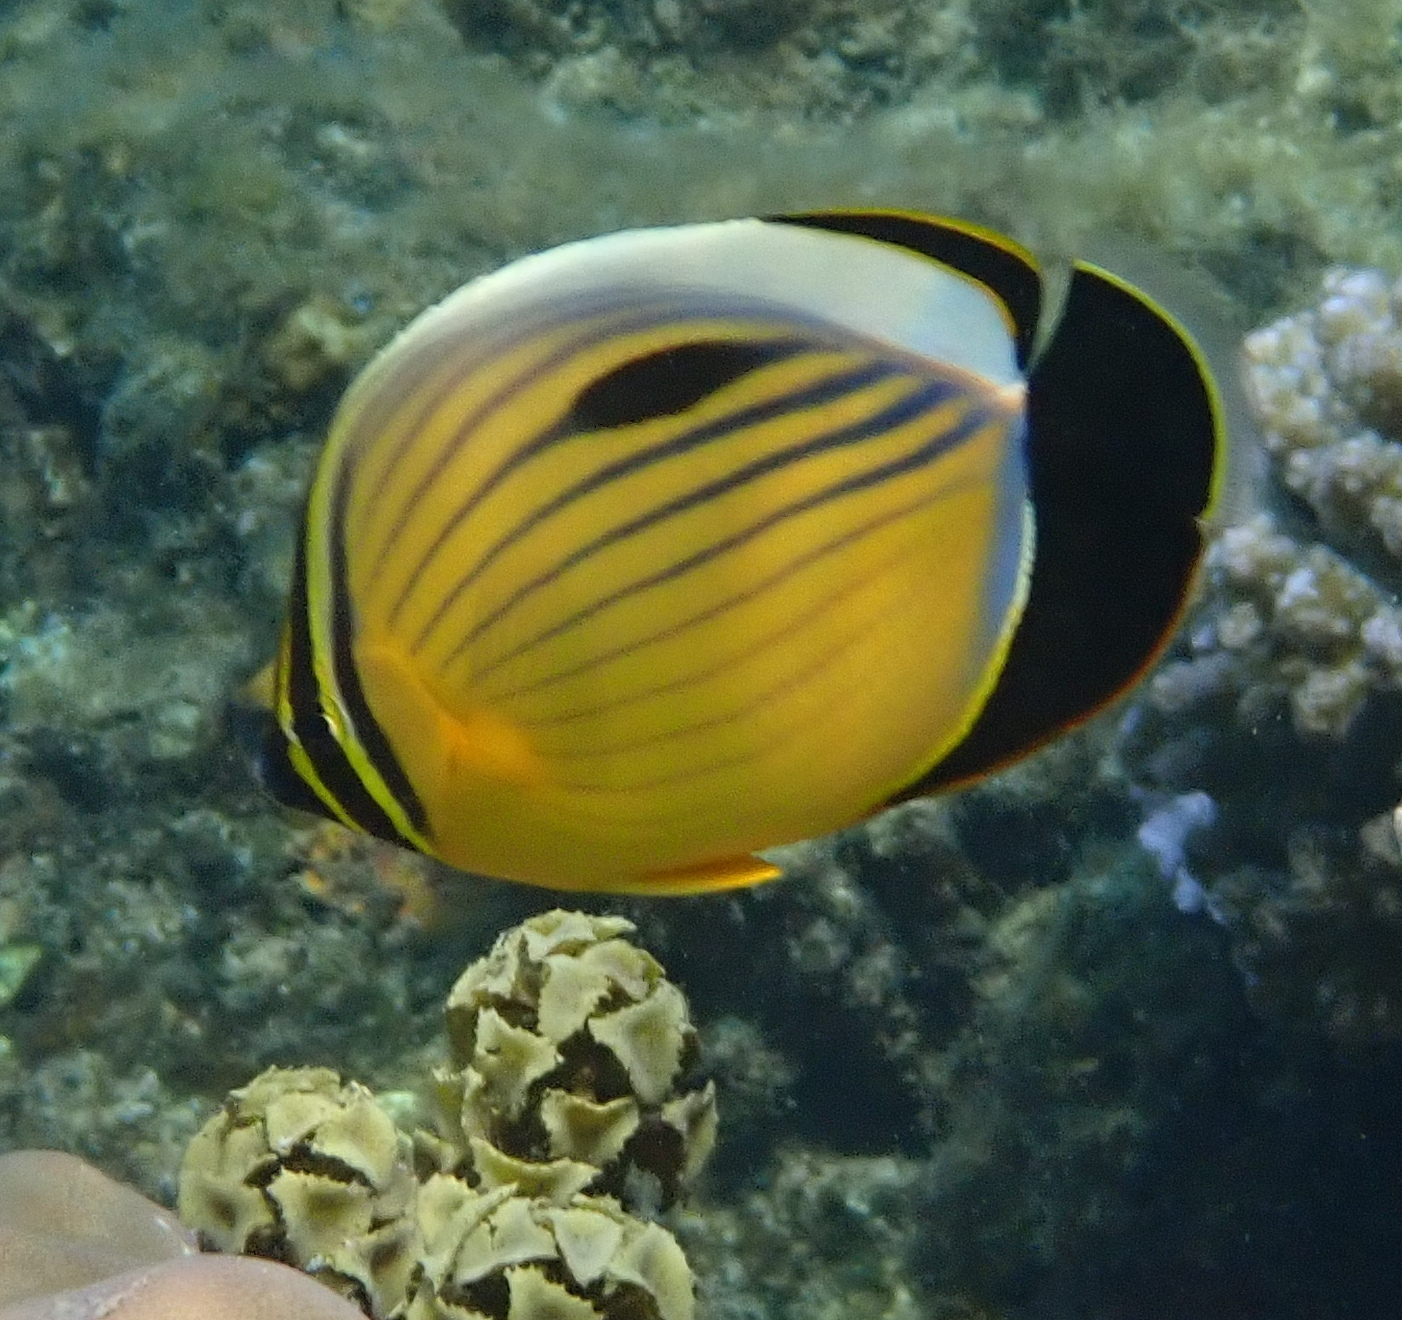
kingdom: Animalia
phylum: Chordata
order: Perciformes
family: Chaetodontidae
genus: Chaetodon
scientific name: Chaetodon austriacus
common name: Exquisite butterflyfish
